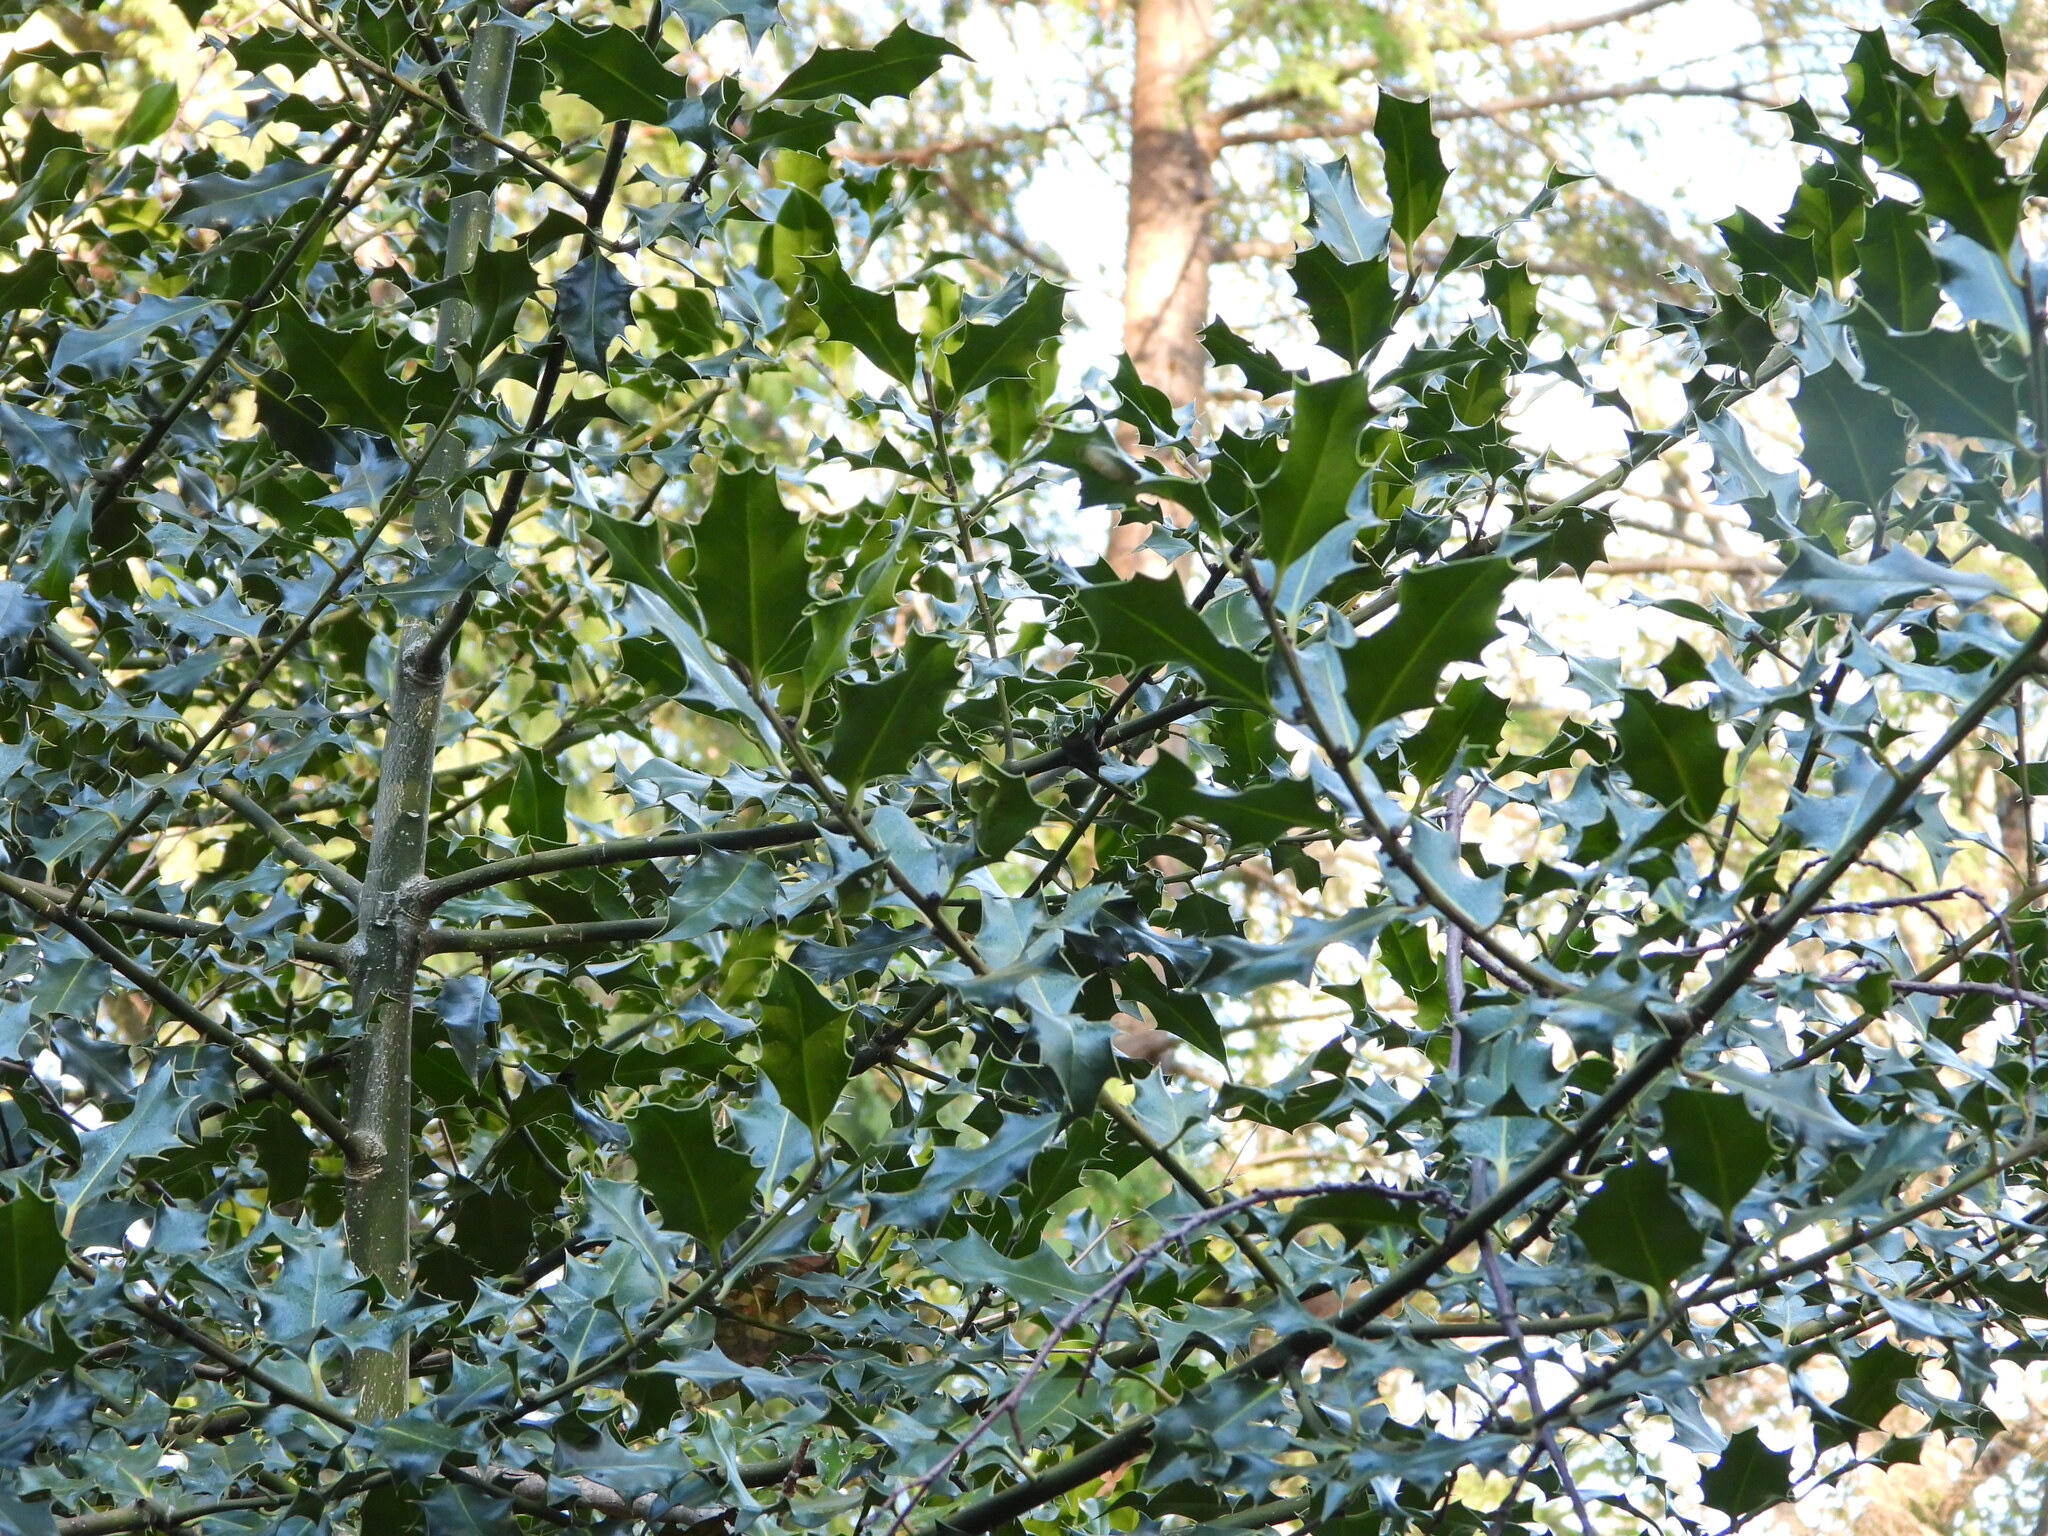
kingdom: Plantae
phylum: Tracheophyta
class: Magnoliopsida
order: Aquifoliales
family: Aquifoliaceae
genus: Ilex
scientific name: Ilex aquifolium
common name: English holly
